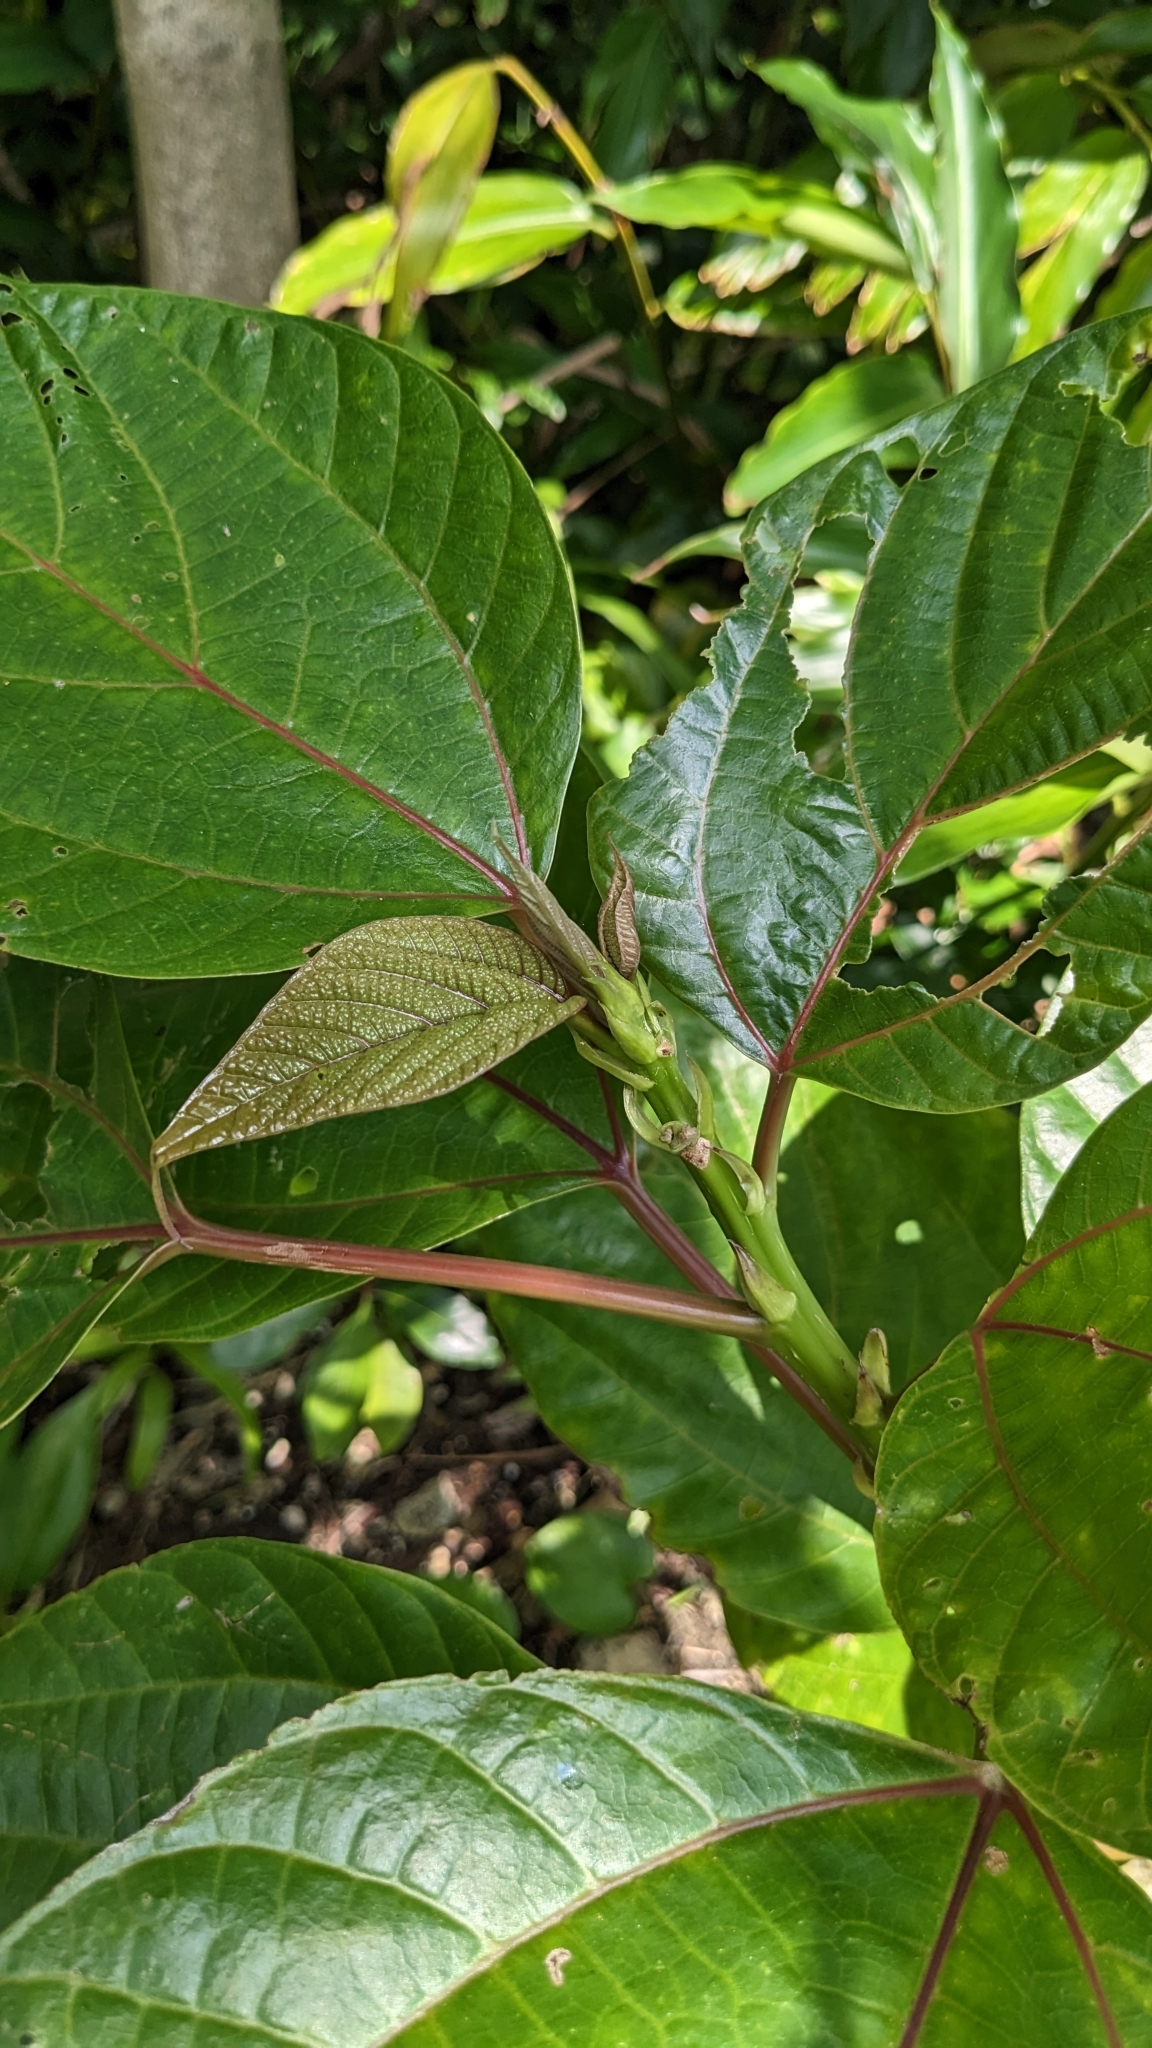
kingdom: Plantae
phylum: Tracheophyta
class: Magnoliopsida
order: Rosales
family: Urticaceae
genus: Oreocnide
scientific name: Oreocnide trinervis
